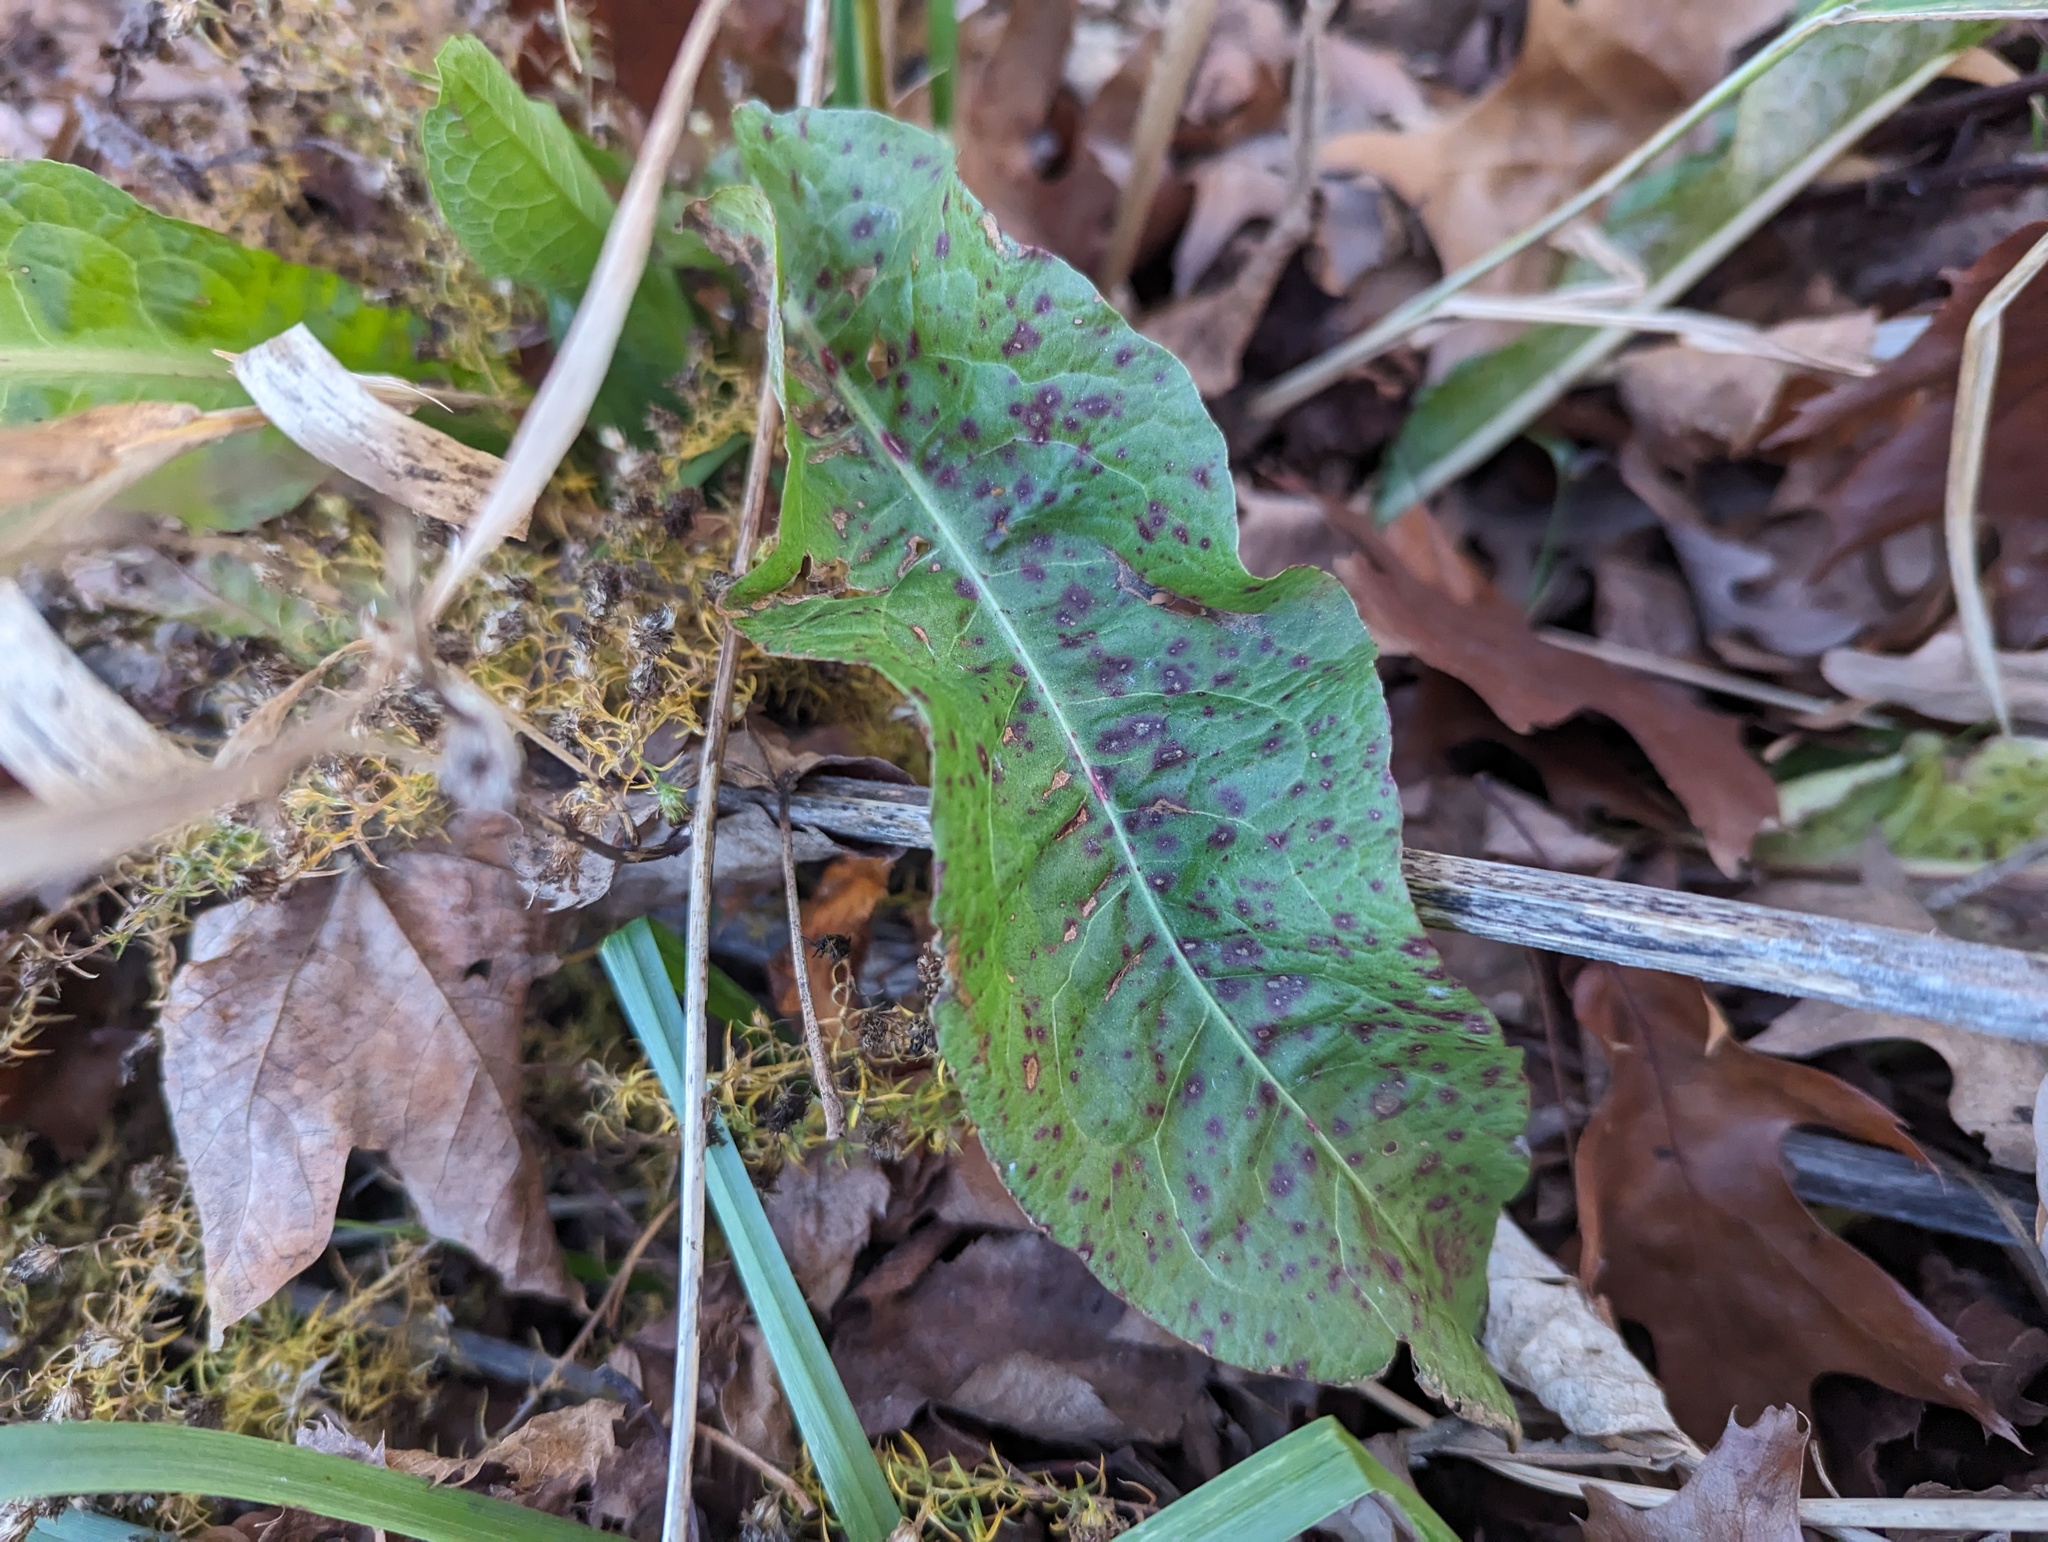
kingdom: Fungi
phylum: Ascomycota
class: Dothideomycetes
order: Mycosphaerellales
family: Mycosphaerellaceae
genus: Ramularia
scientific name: Ramularia rubella
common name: Red dock spot
